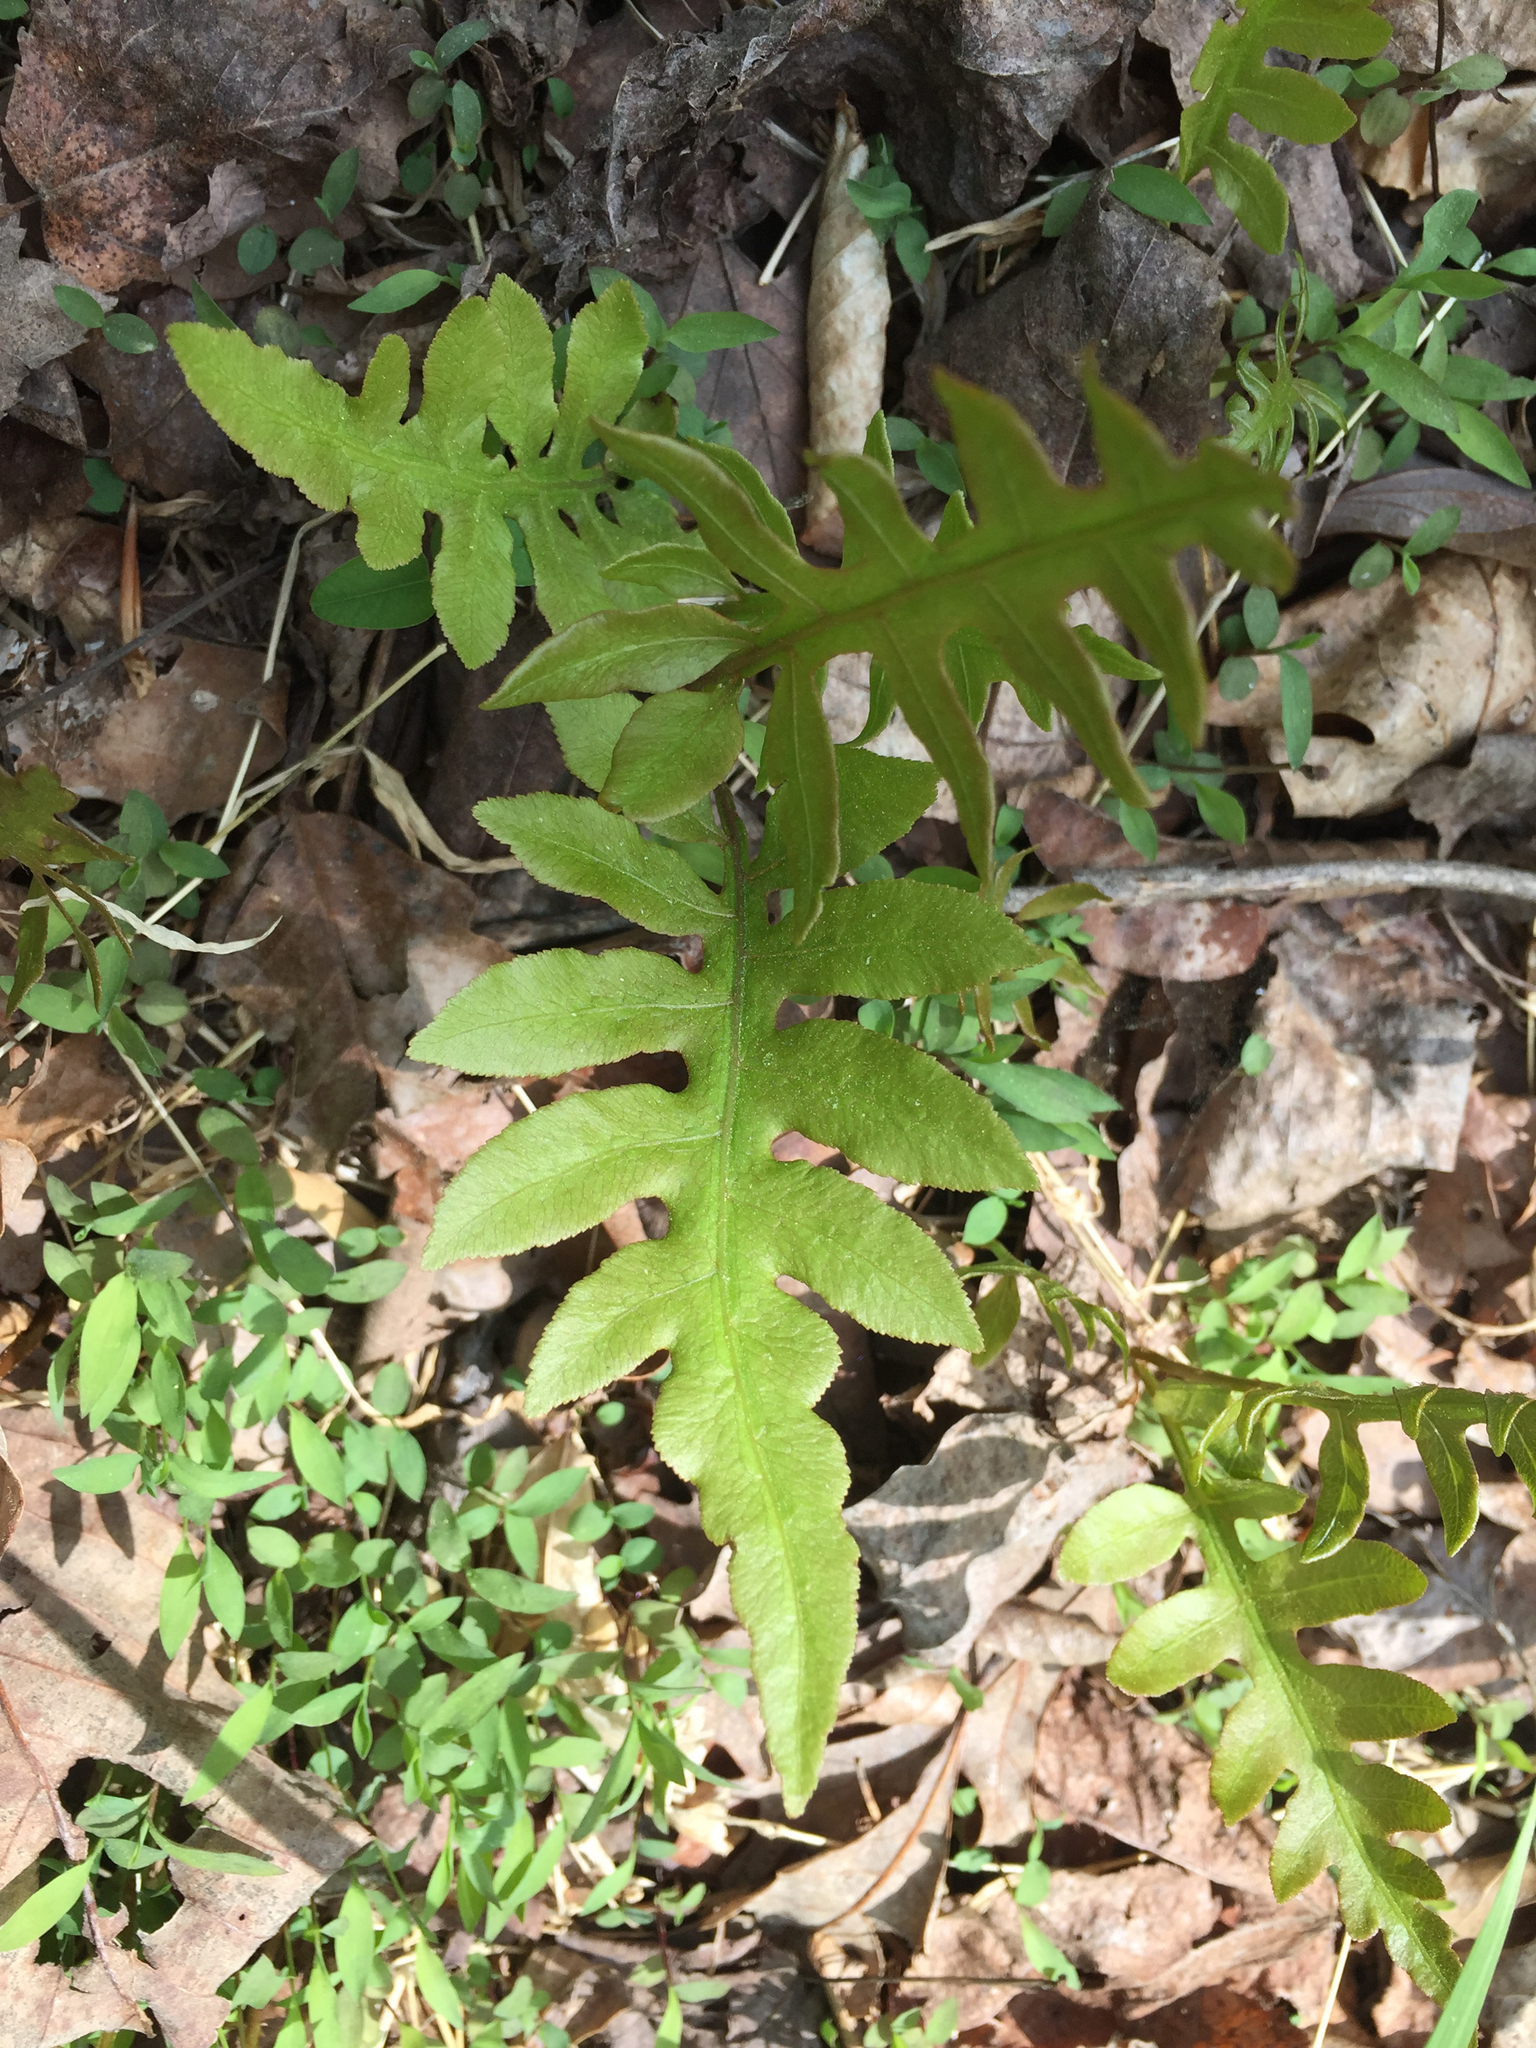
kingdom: Plantae
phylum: Tracheophyta
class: Polypodiopsida
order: Polypodiales
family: Onocleaceae
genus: Onoclea
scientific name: Onoclea sensibilis
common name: Sensitive fern
